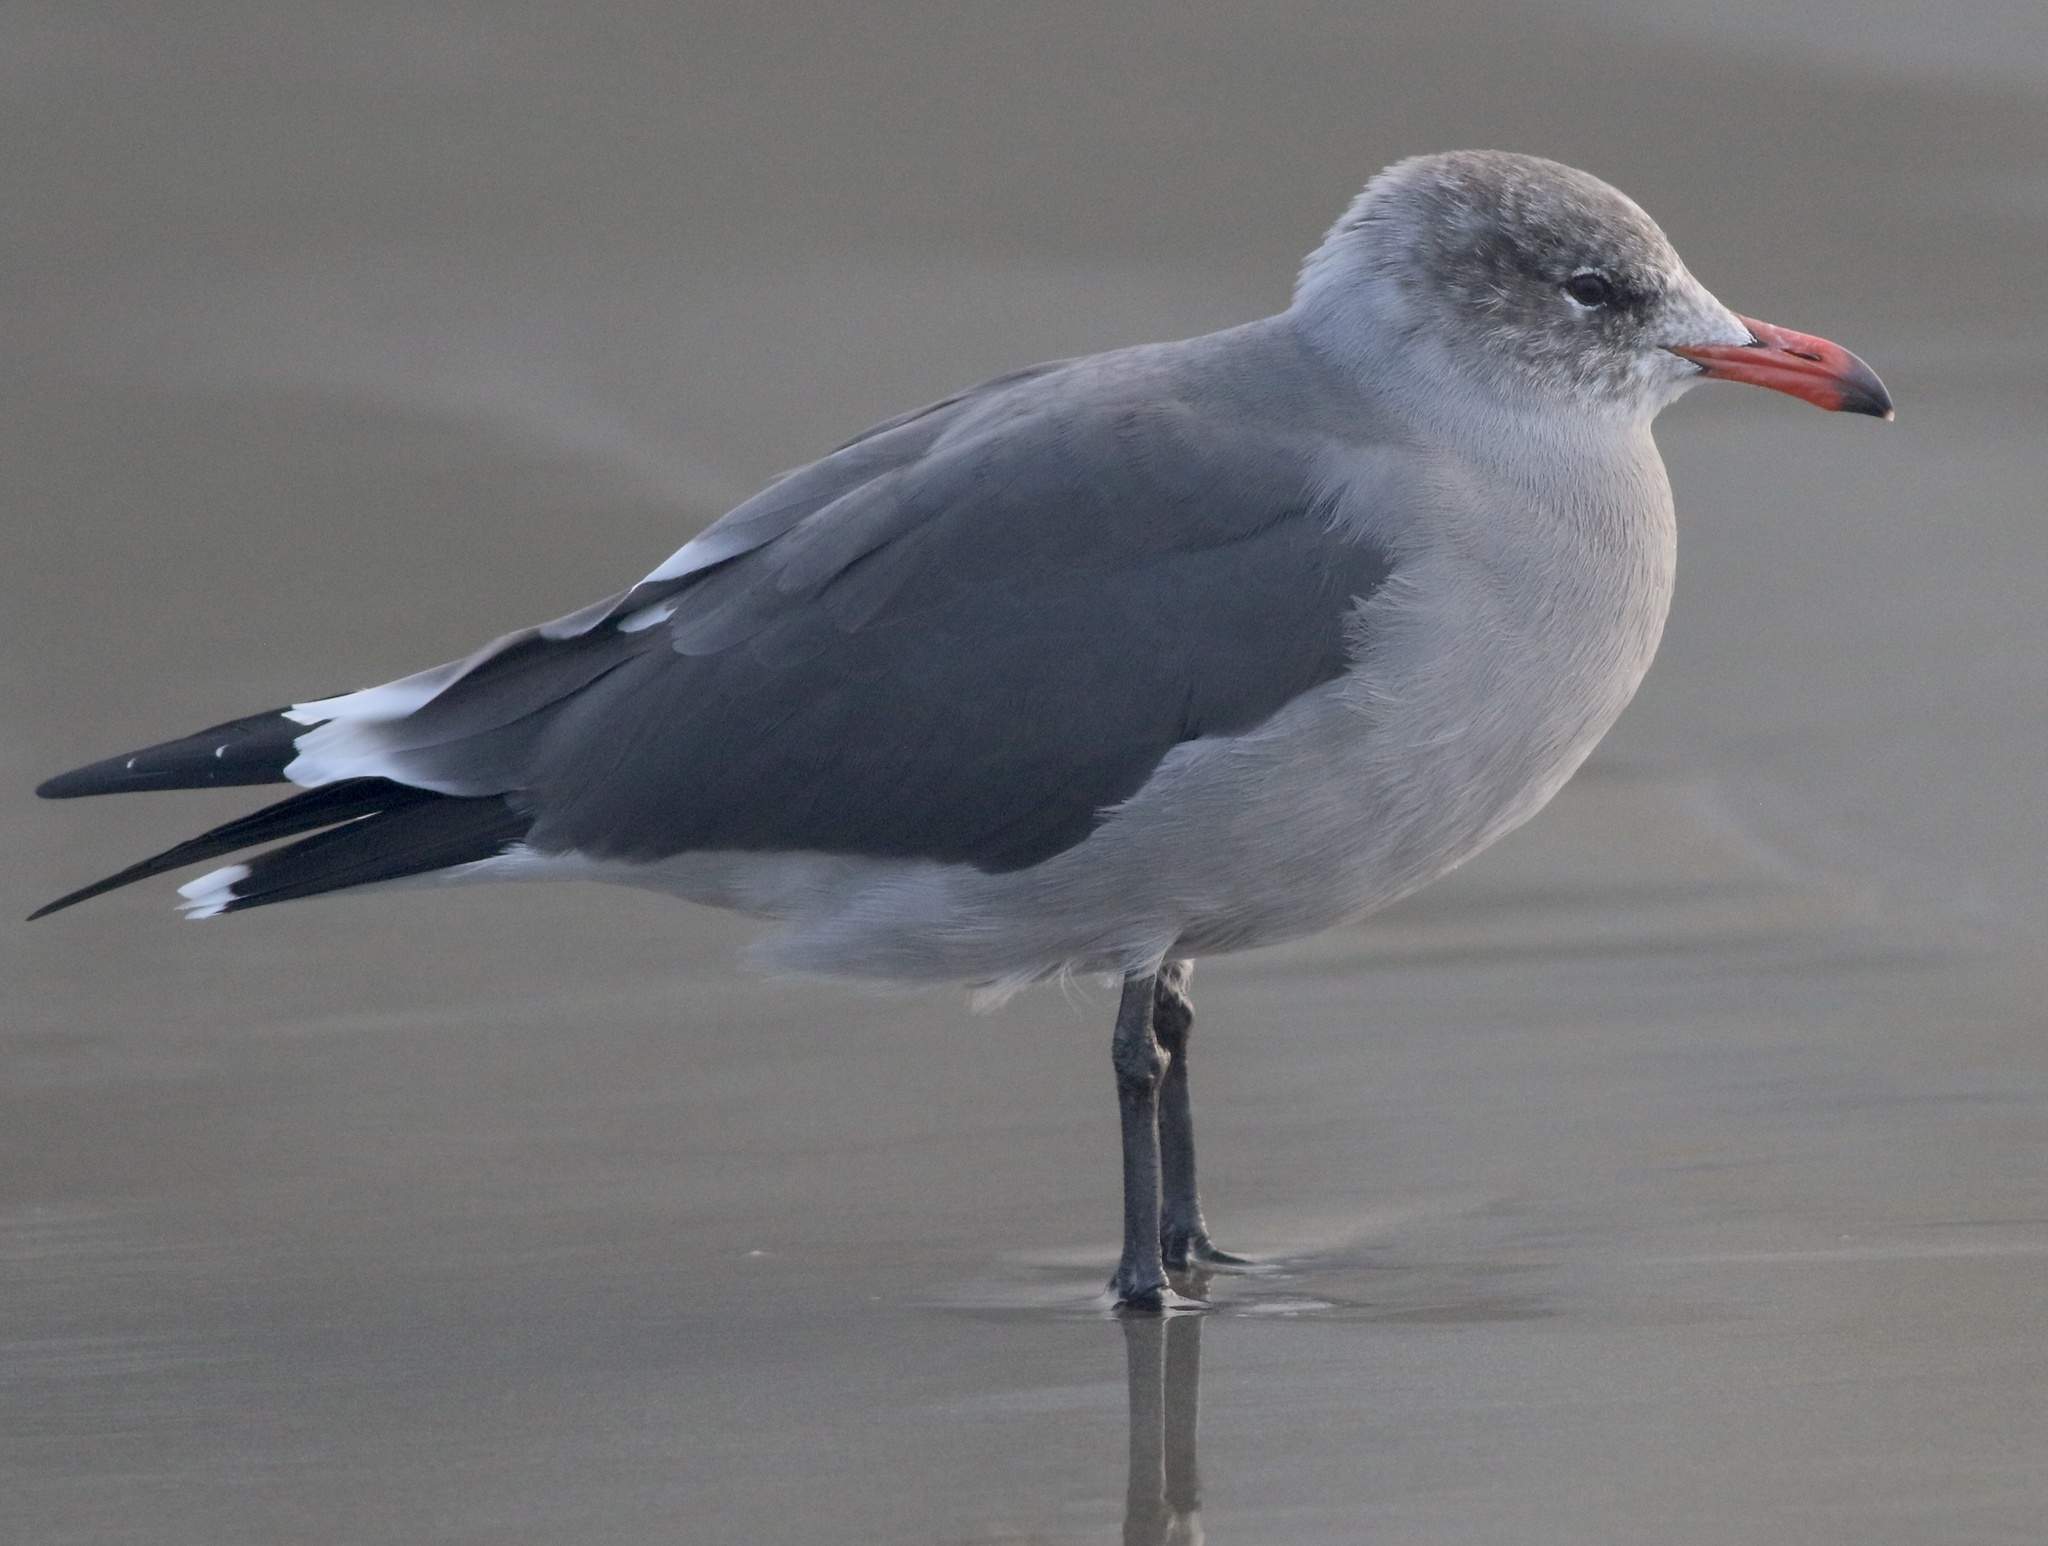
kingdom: Animalia
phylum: Chordata
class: Aves
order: Charadriiformes
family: Laridae
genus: Larus
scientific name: Larus heermanni
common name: Heermann's gull
